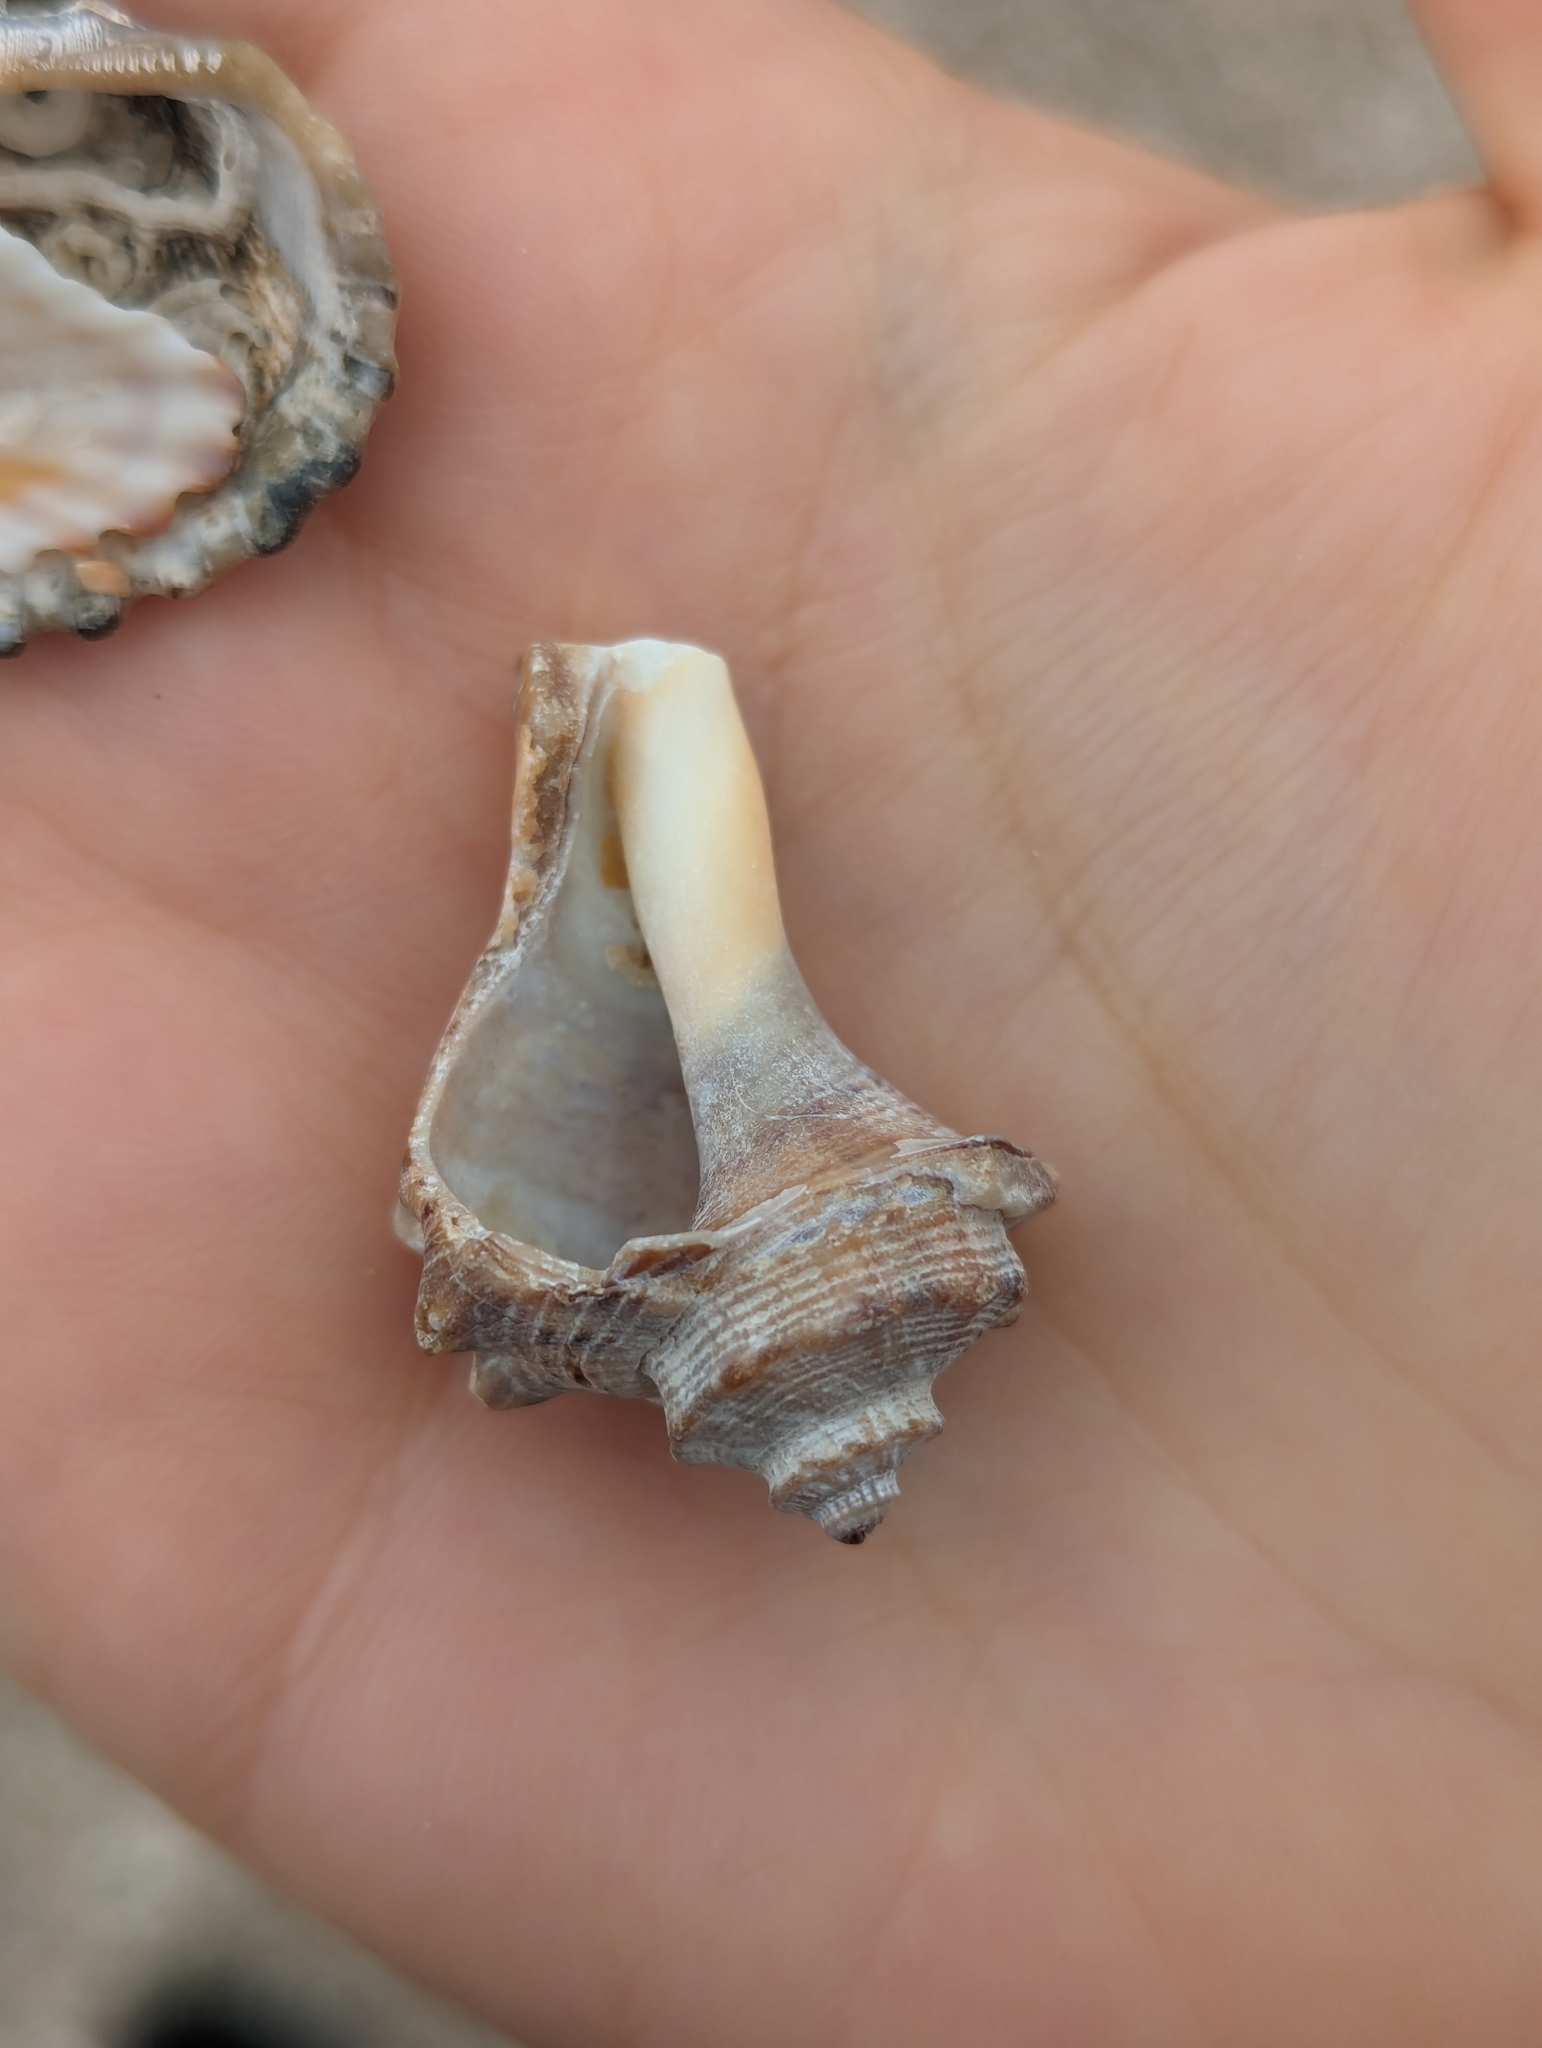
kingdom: Animalia
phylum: Mollusca
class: Gastropoda
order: Neogastropoda
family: Muricidae
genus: Rapana
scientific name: Rapana venosa
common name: Veined rapa whelk
